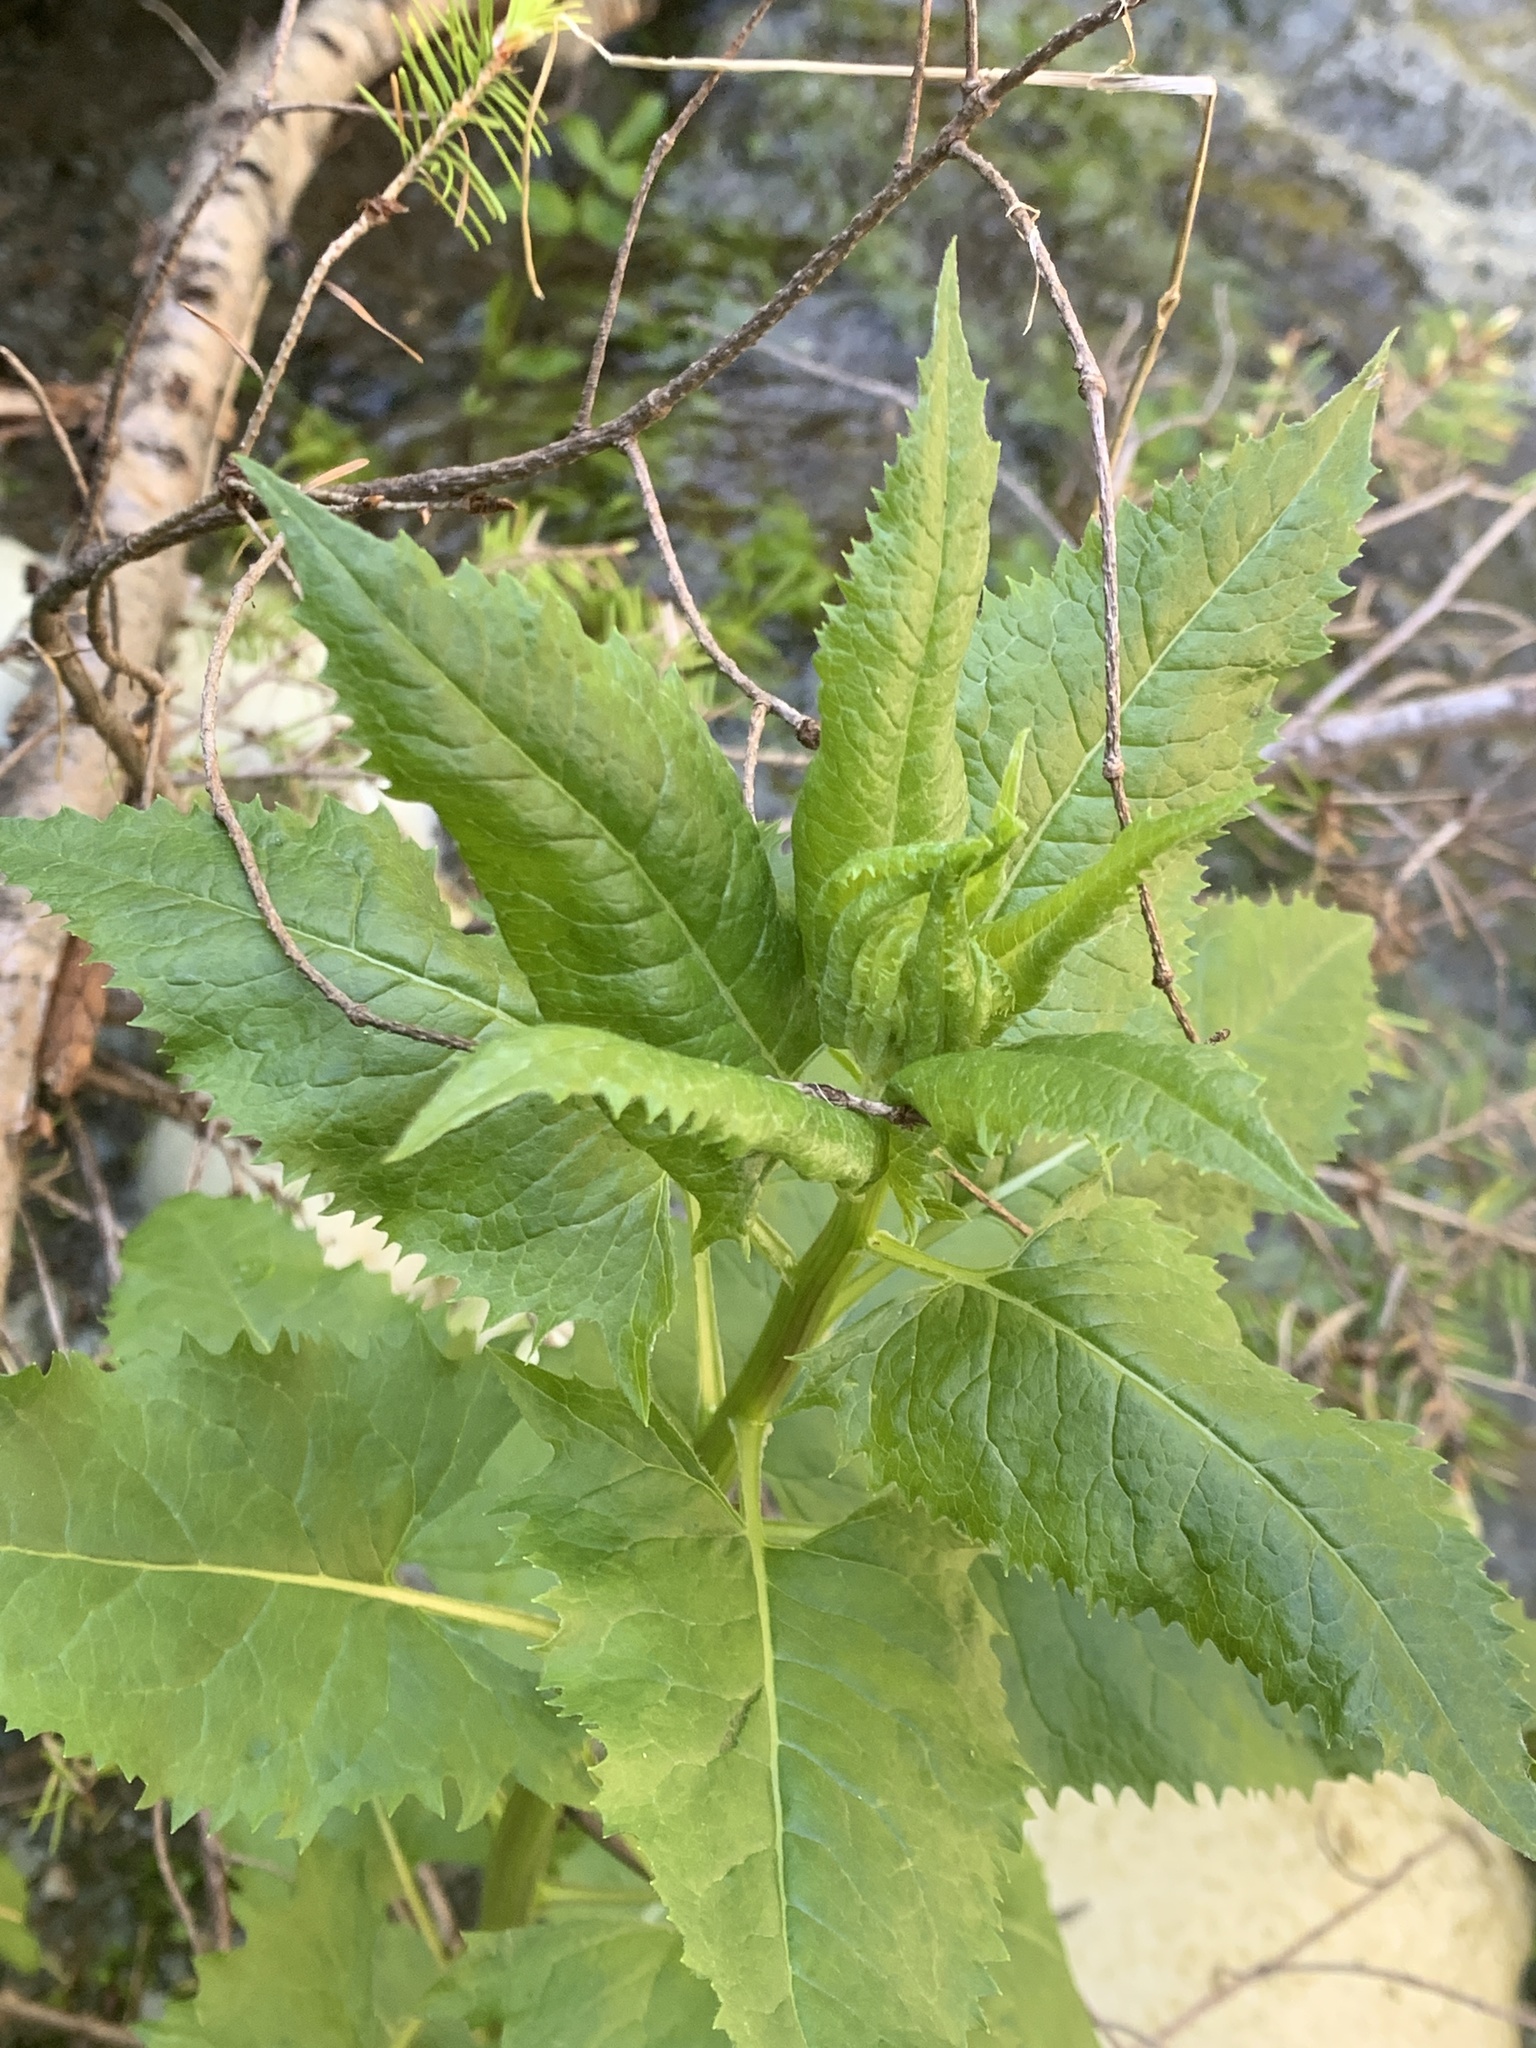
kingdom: Plantae
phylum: Tracheophyta
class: Magnoliopsida
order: Asterales
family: Asteraceae
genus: Senecio
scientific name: Senecio triangularis
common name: Arrowleaf butterweed
